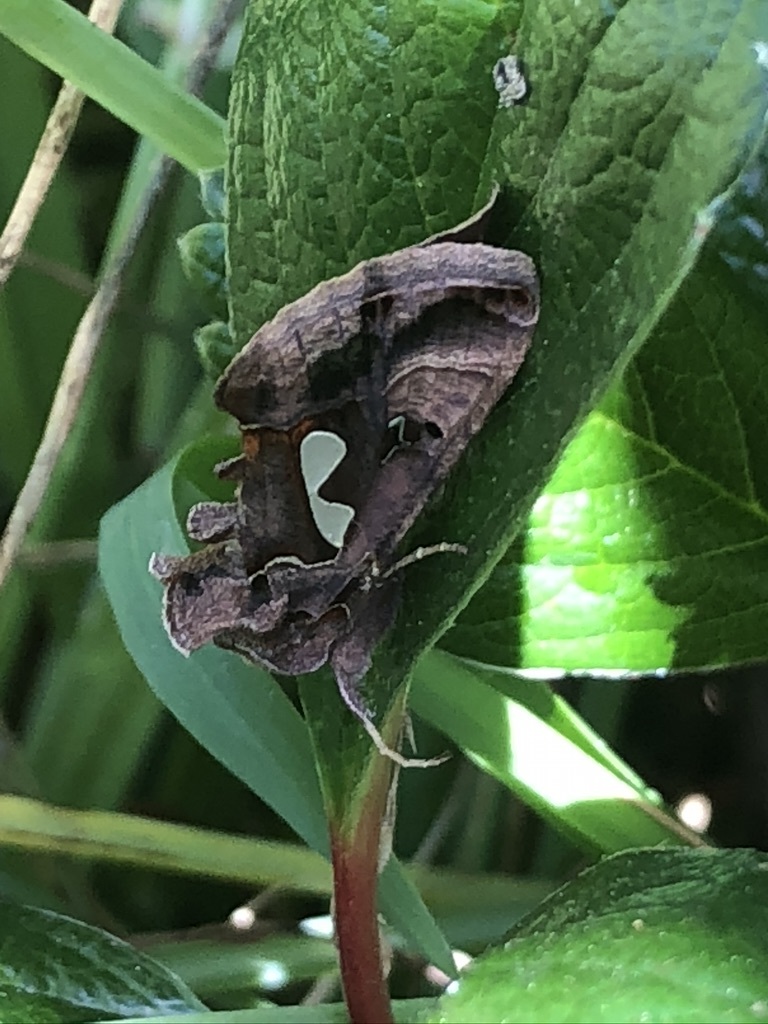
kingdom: Animalia
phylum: Arthropoda
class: Insecta
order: Lepidoptera
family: Noctuidae
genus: Megalographa
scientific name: Megalographa biloba
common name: Cutworm
